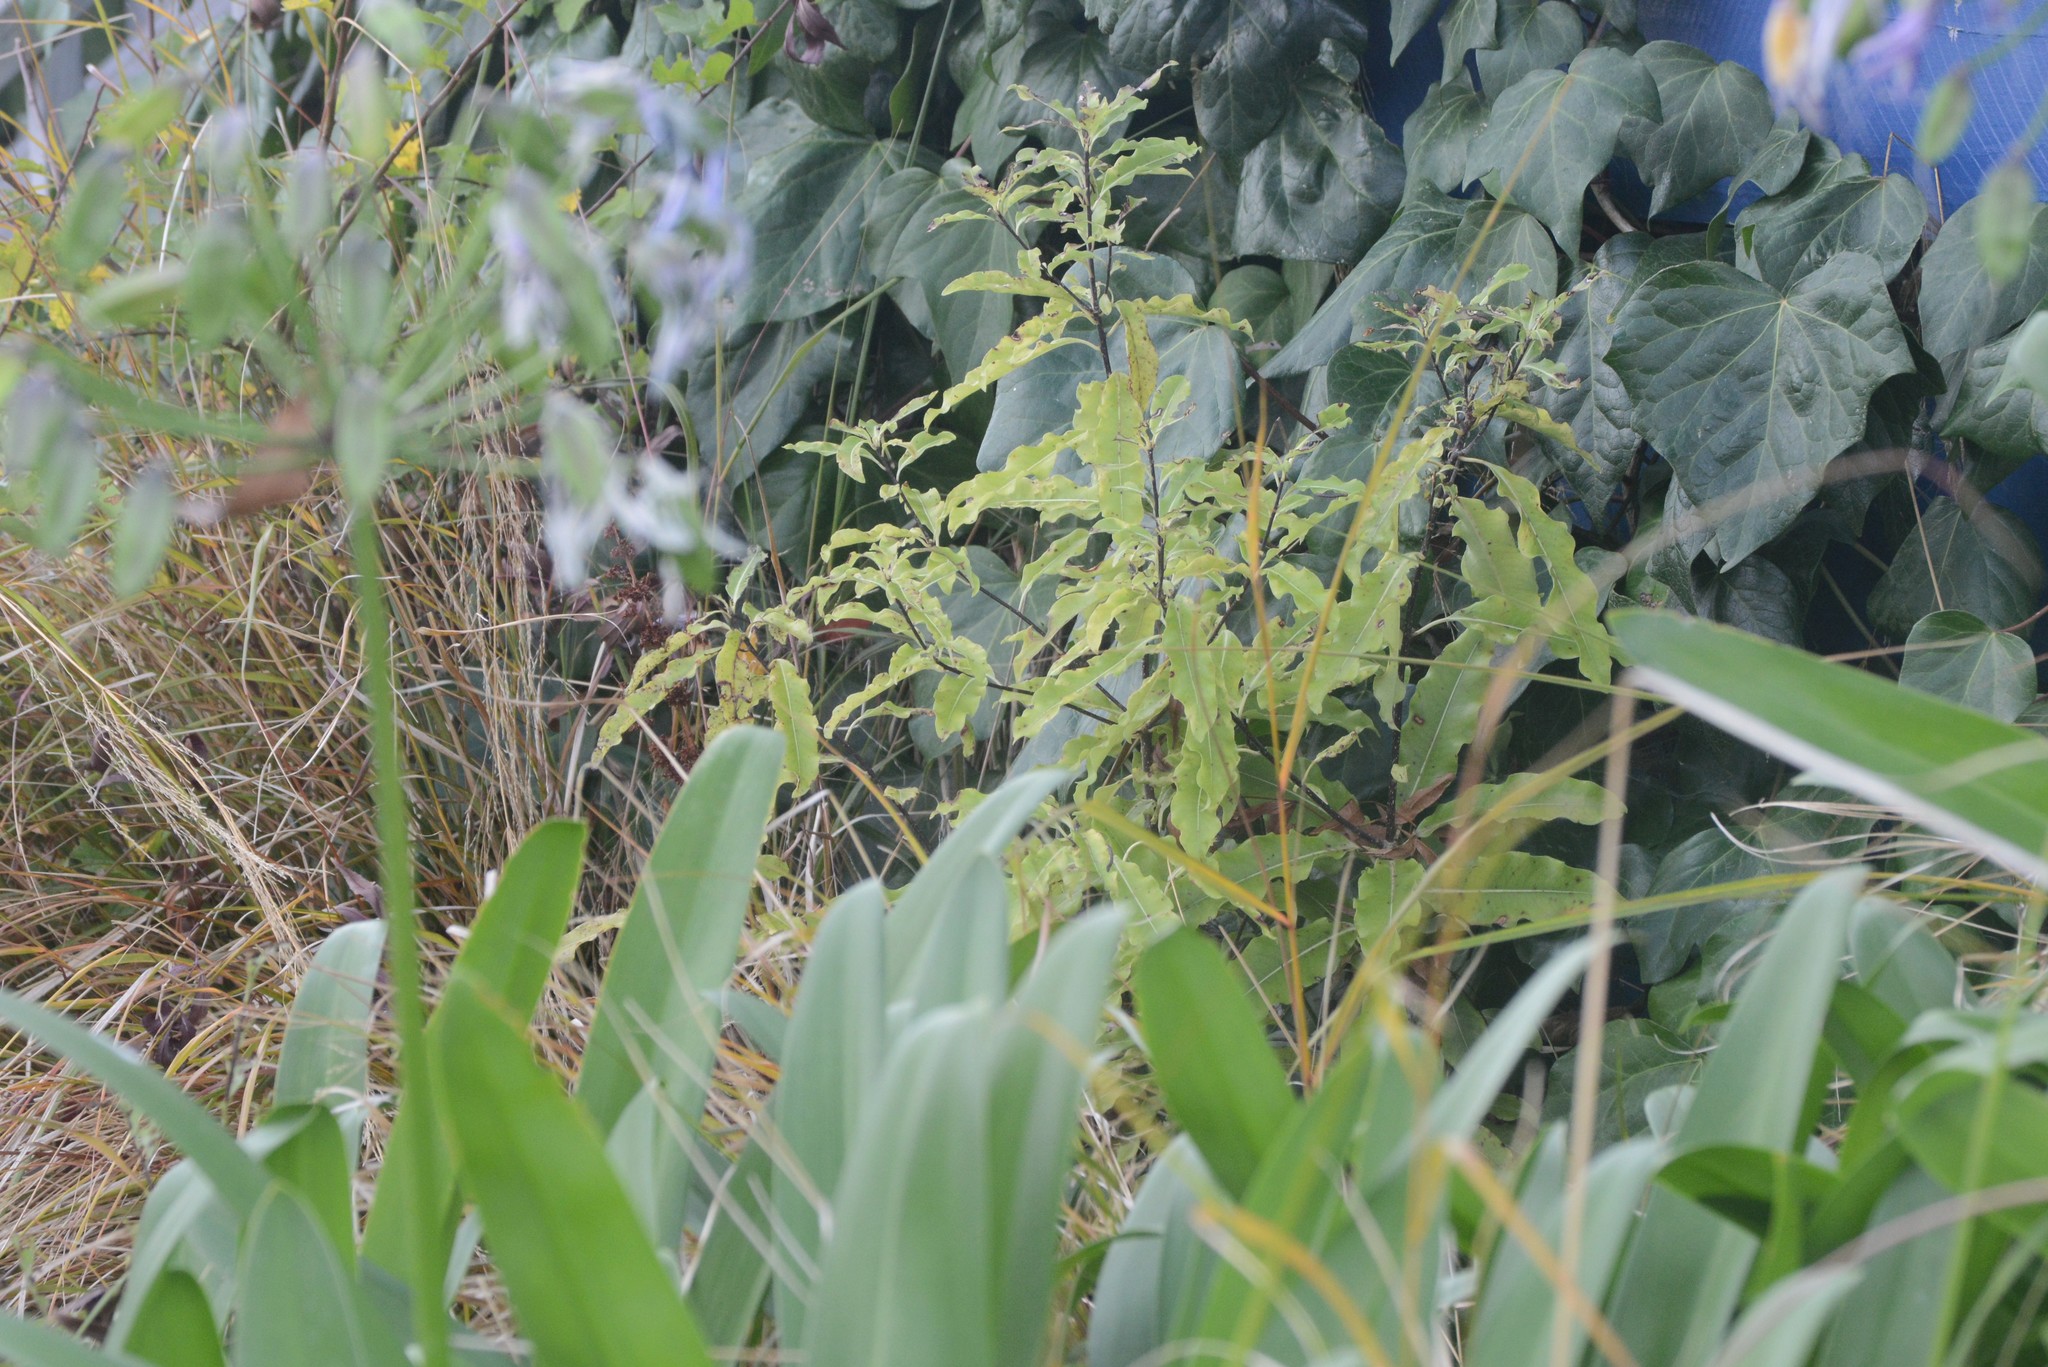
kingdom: Plantae
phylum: Tracheophyta
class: Magnoliopsida
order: Apiales
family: Pittosporaceae
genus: Pittosporum
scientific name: Pittosporum eugenioides
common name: Lemonwood
